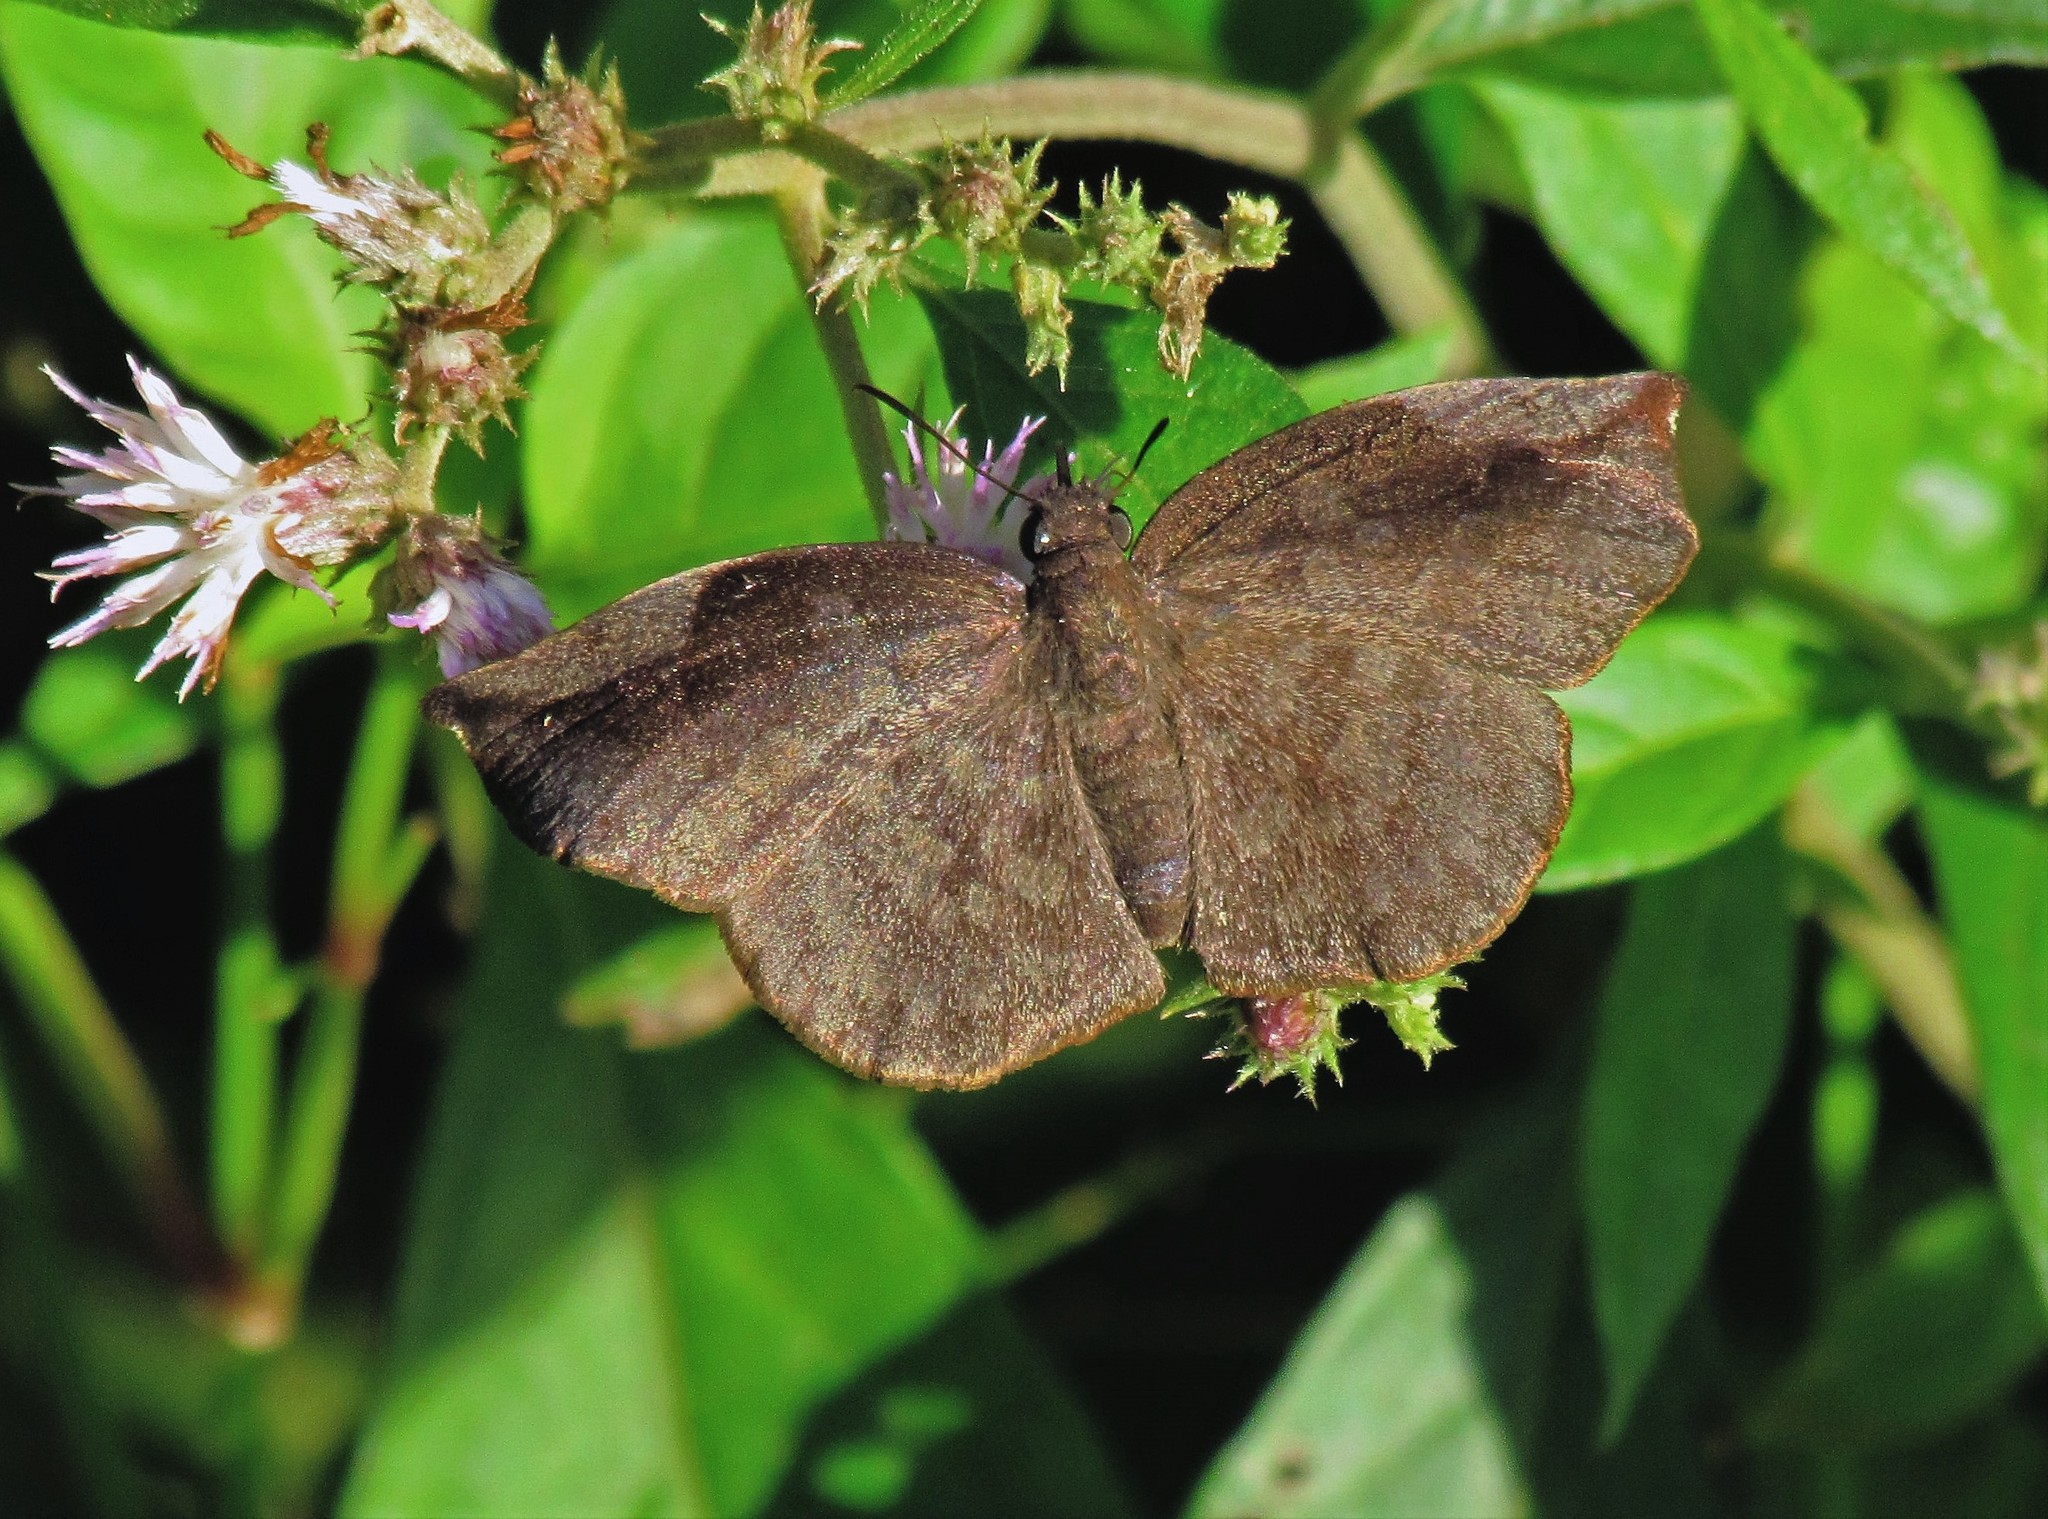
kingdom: Animalia
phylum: Arthropoda
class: Insecta
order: Lepidoptera
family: Hesperiidae
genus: Achlyodes
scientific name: Achlyodes thraso
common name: Sickle-winged skipper
